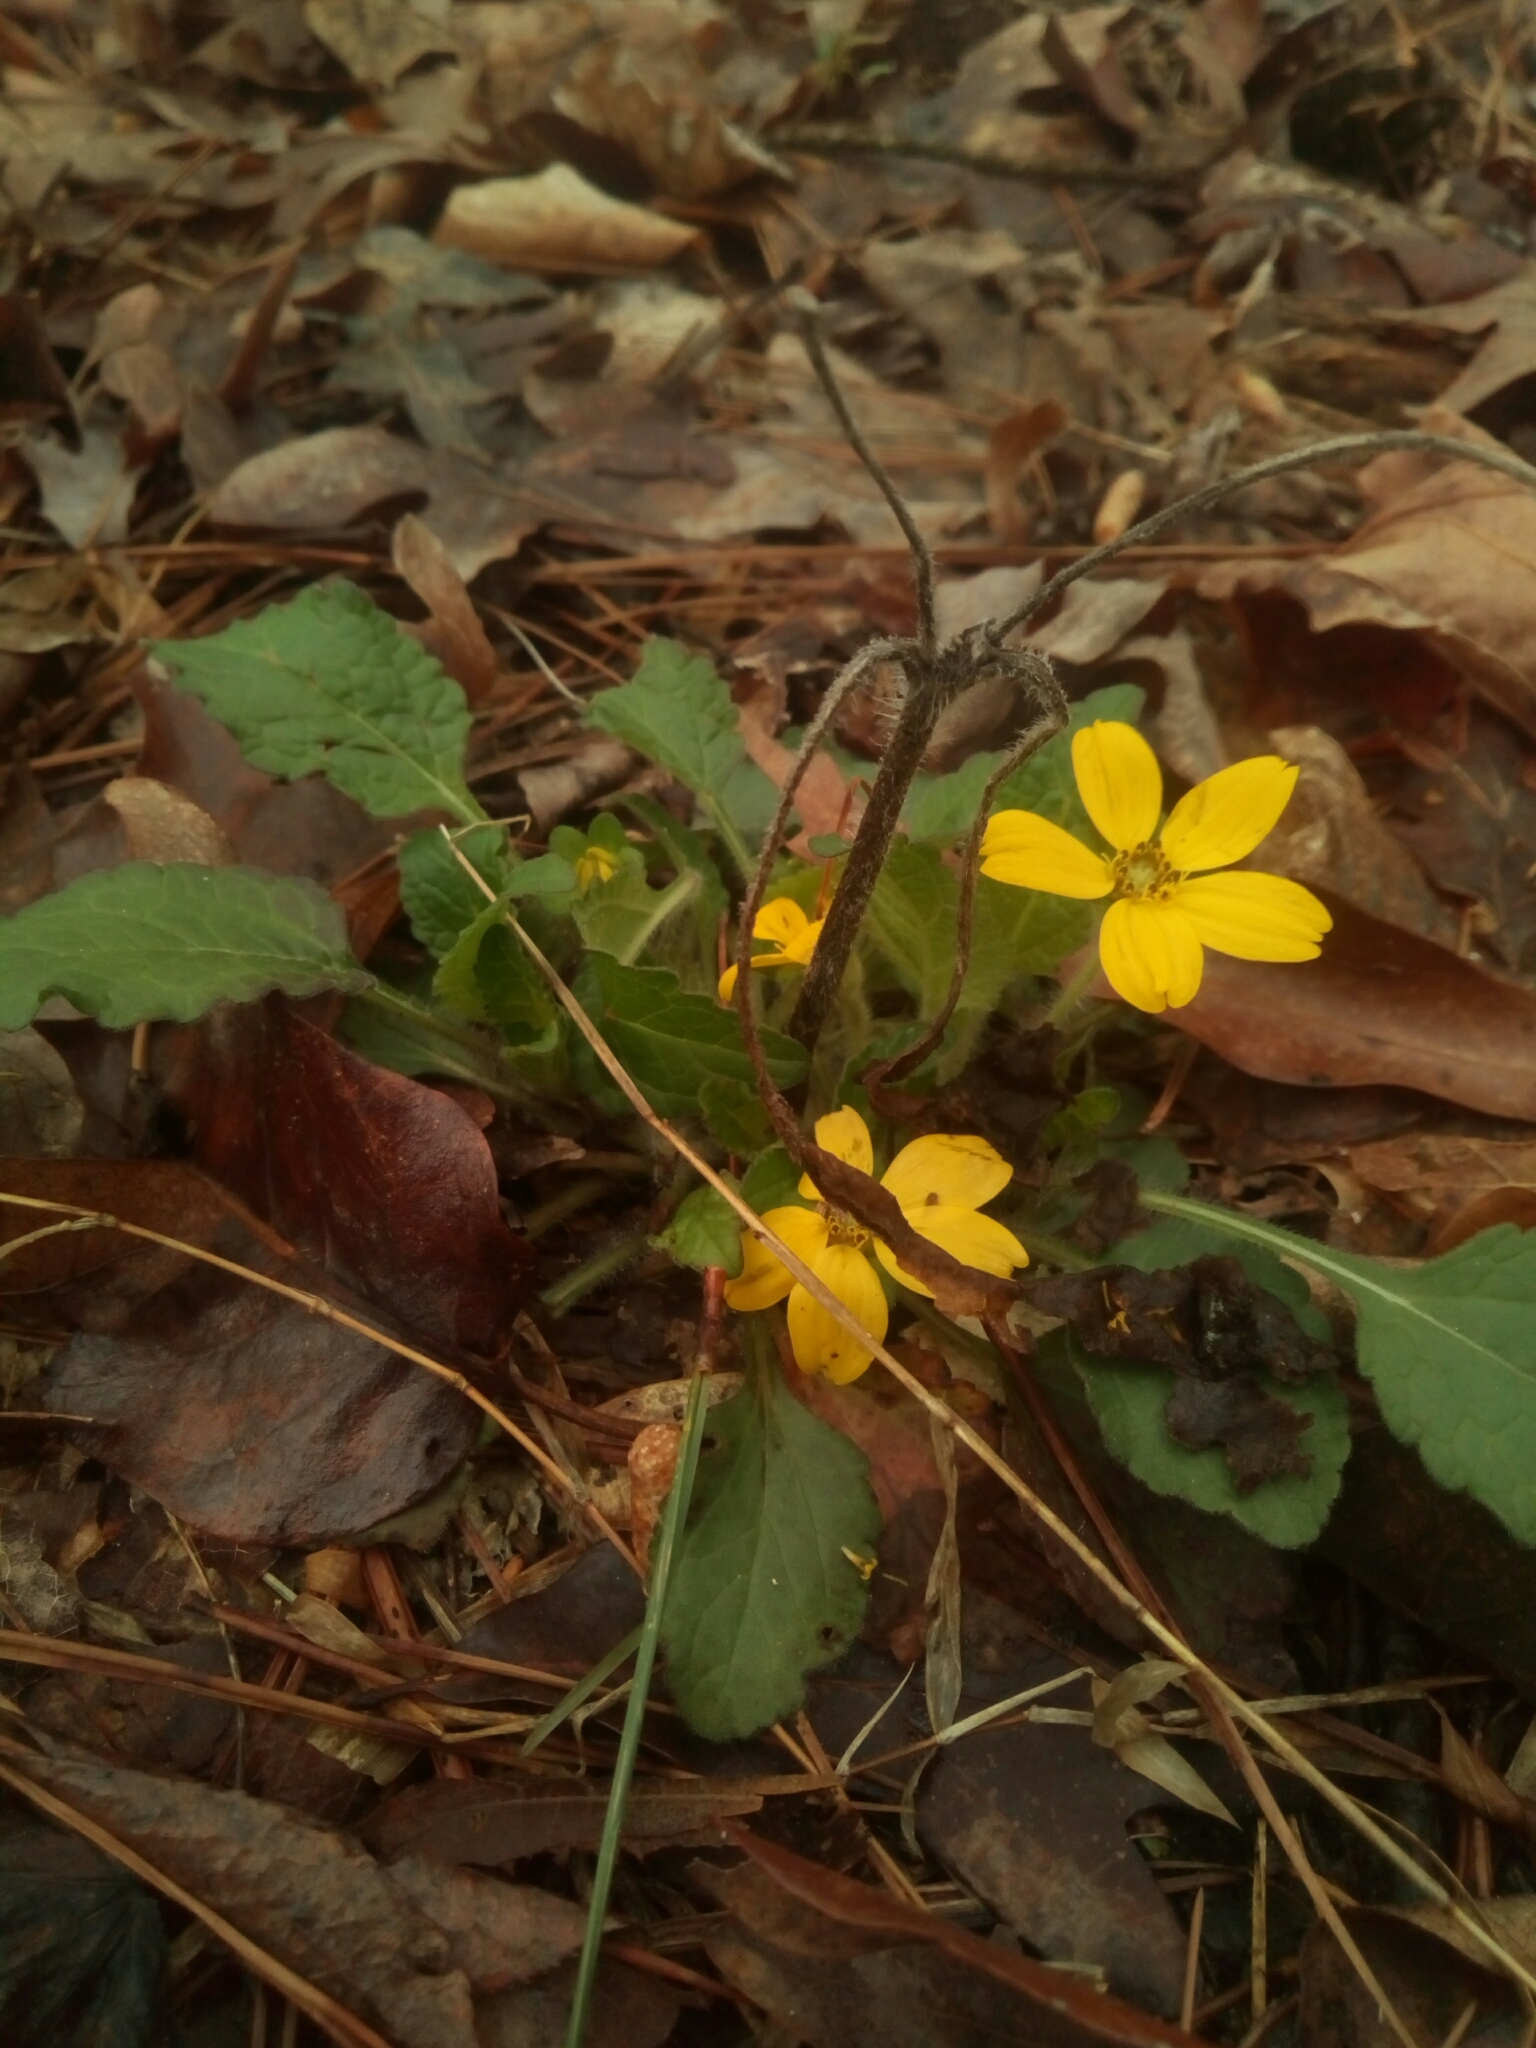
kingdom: Plantae
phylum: Tracheophyta
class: Magnoliopsida
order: Asterales
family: Asteraceae
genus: Chrysogonum
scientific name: Chrysogonum virginianum
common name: Golden-knee
